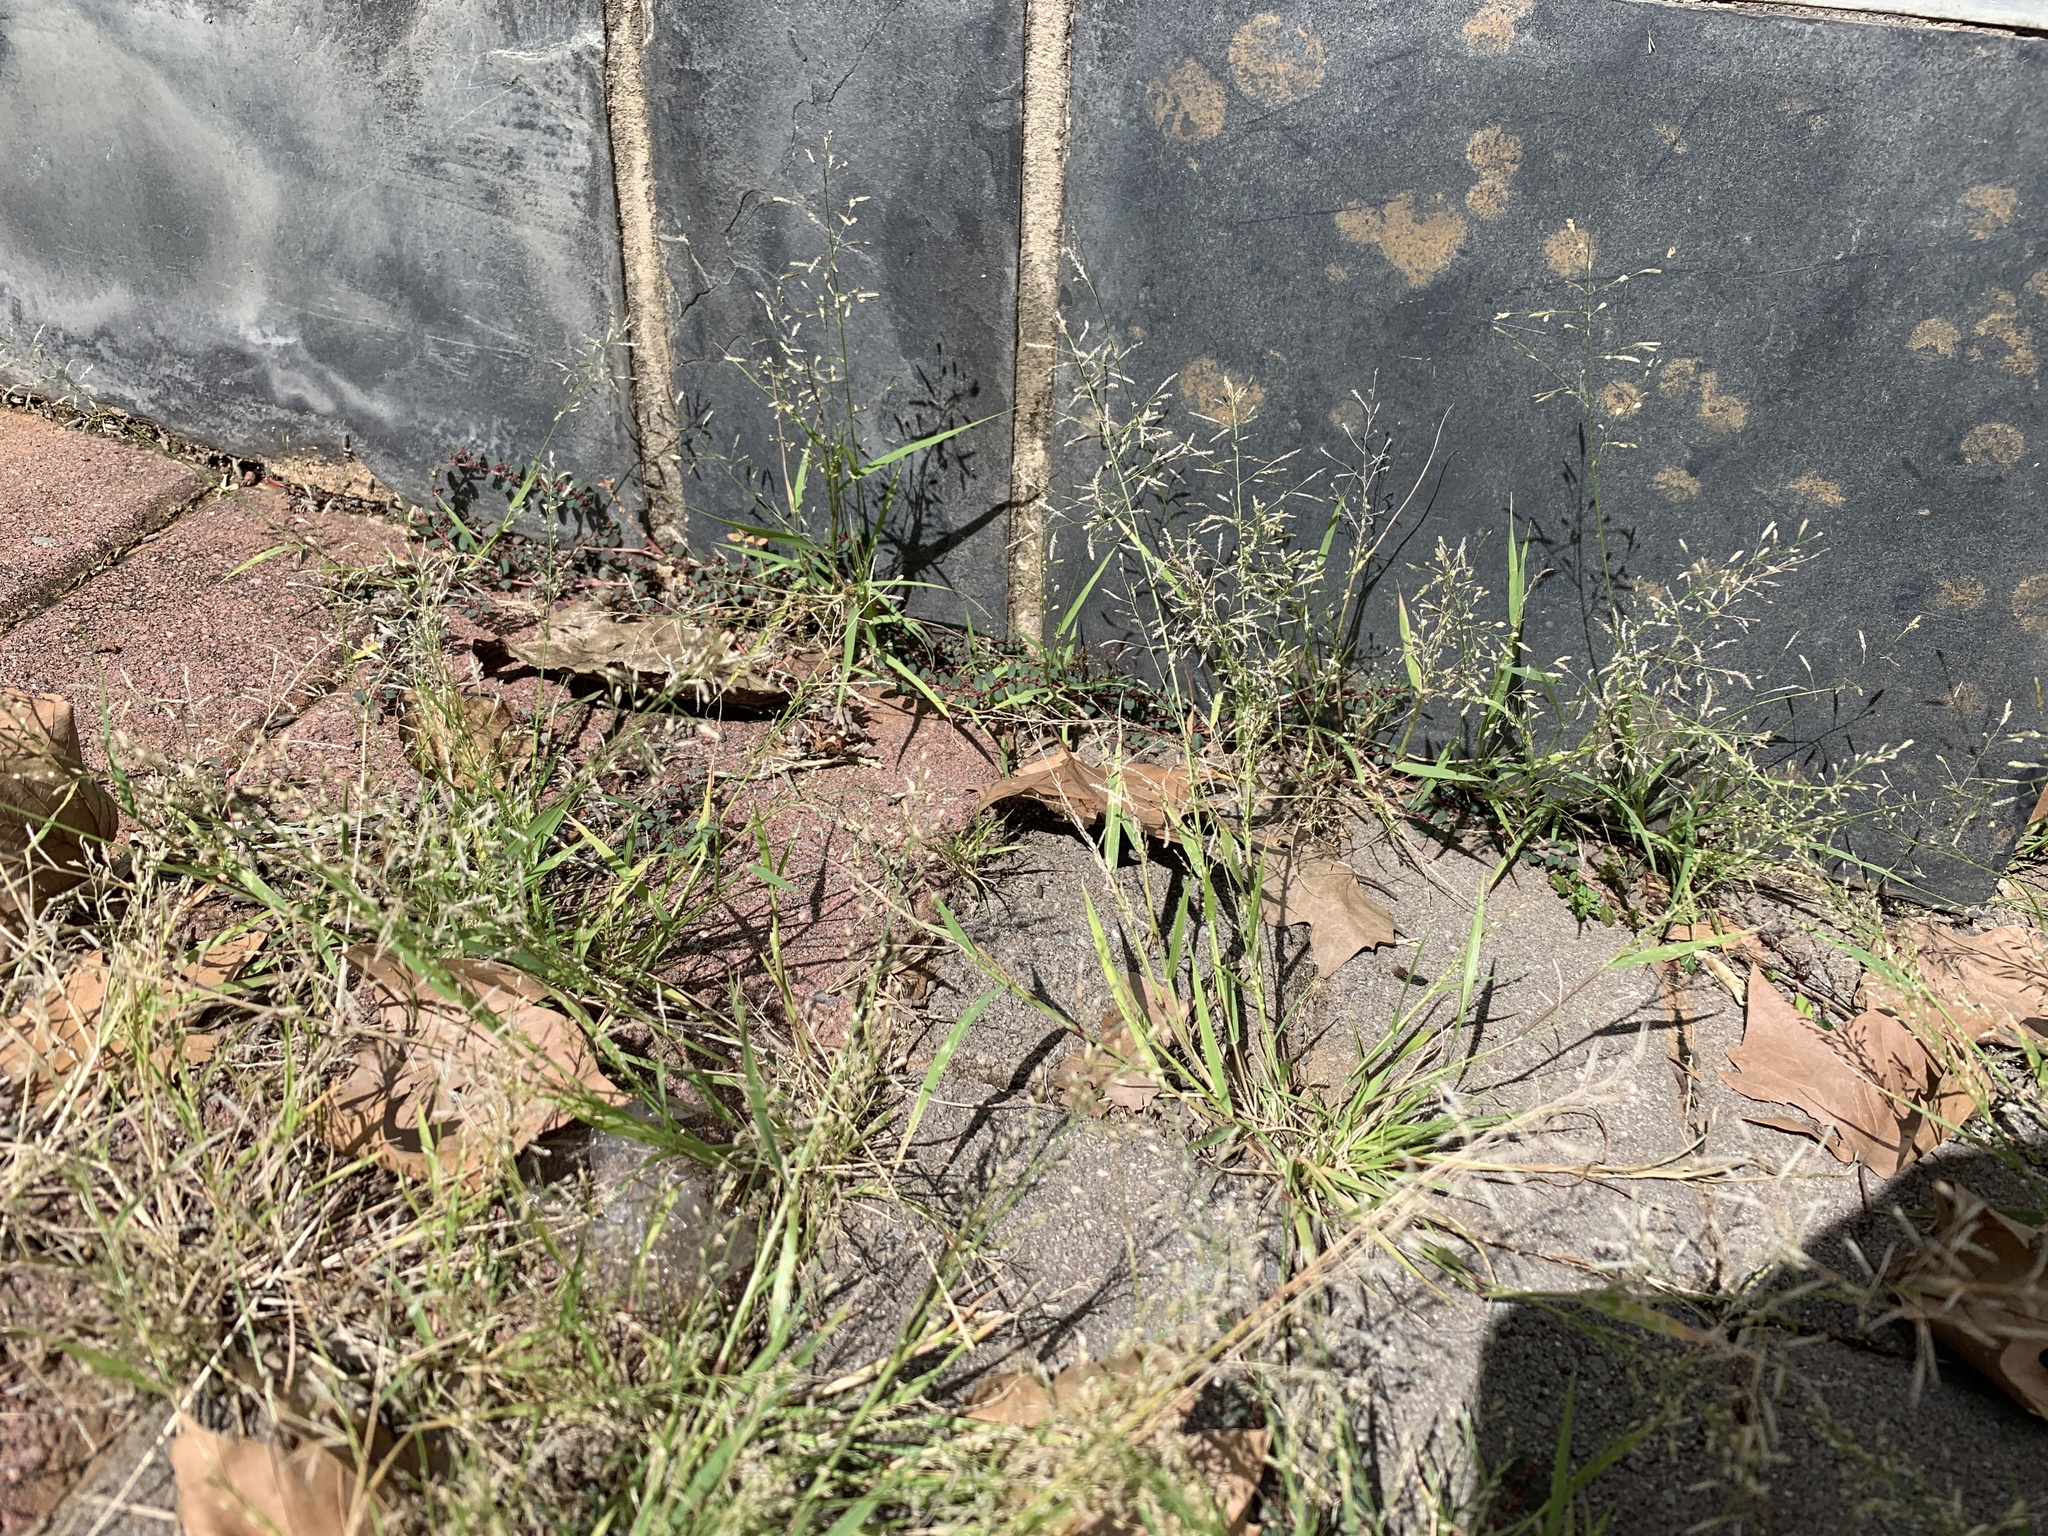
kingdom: Plantae
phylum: Tracheophyta
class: Liliopsida
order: Poales
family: Poaceae
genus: Poa
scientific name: Poa annua
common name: Annual bluegrass
